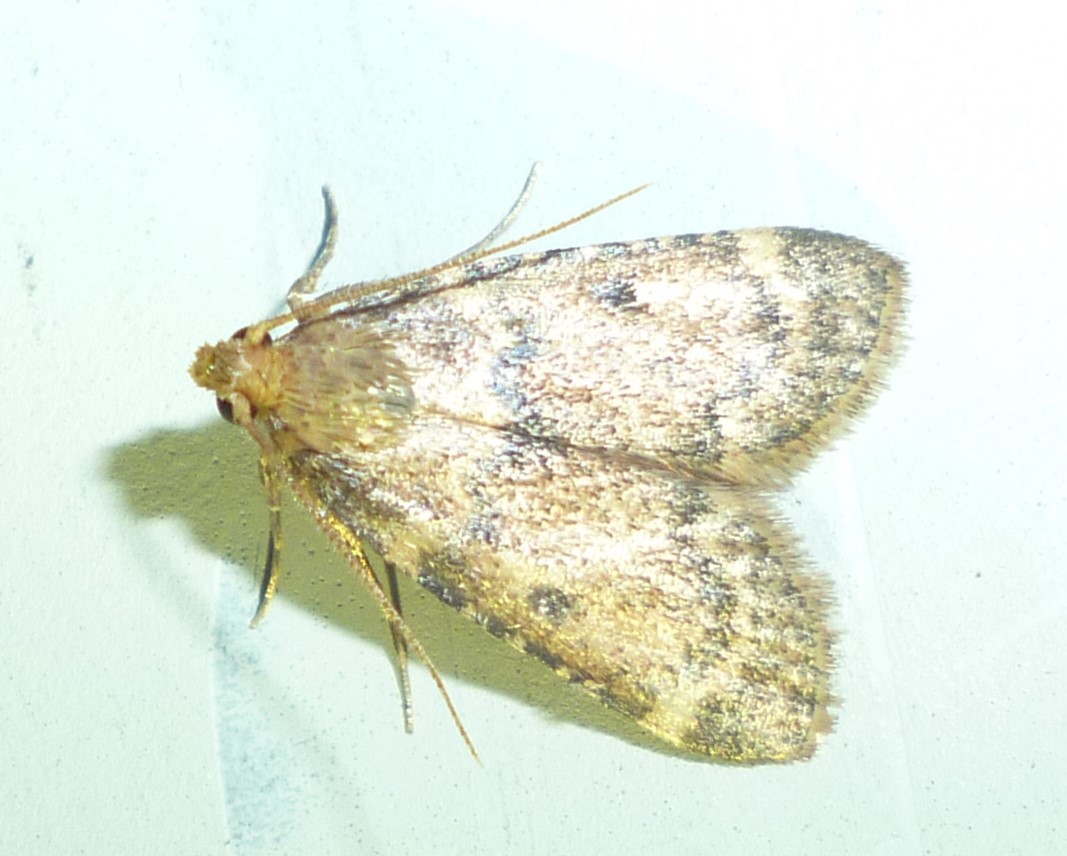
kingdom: Animalia
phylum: Arthropoda
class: Insecta
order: Lepidoptera
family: Pyralidae
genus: Aglossa
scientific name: Aglossa disciferalis
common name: Pink-masked pyralid moth
